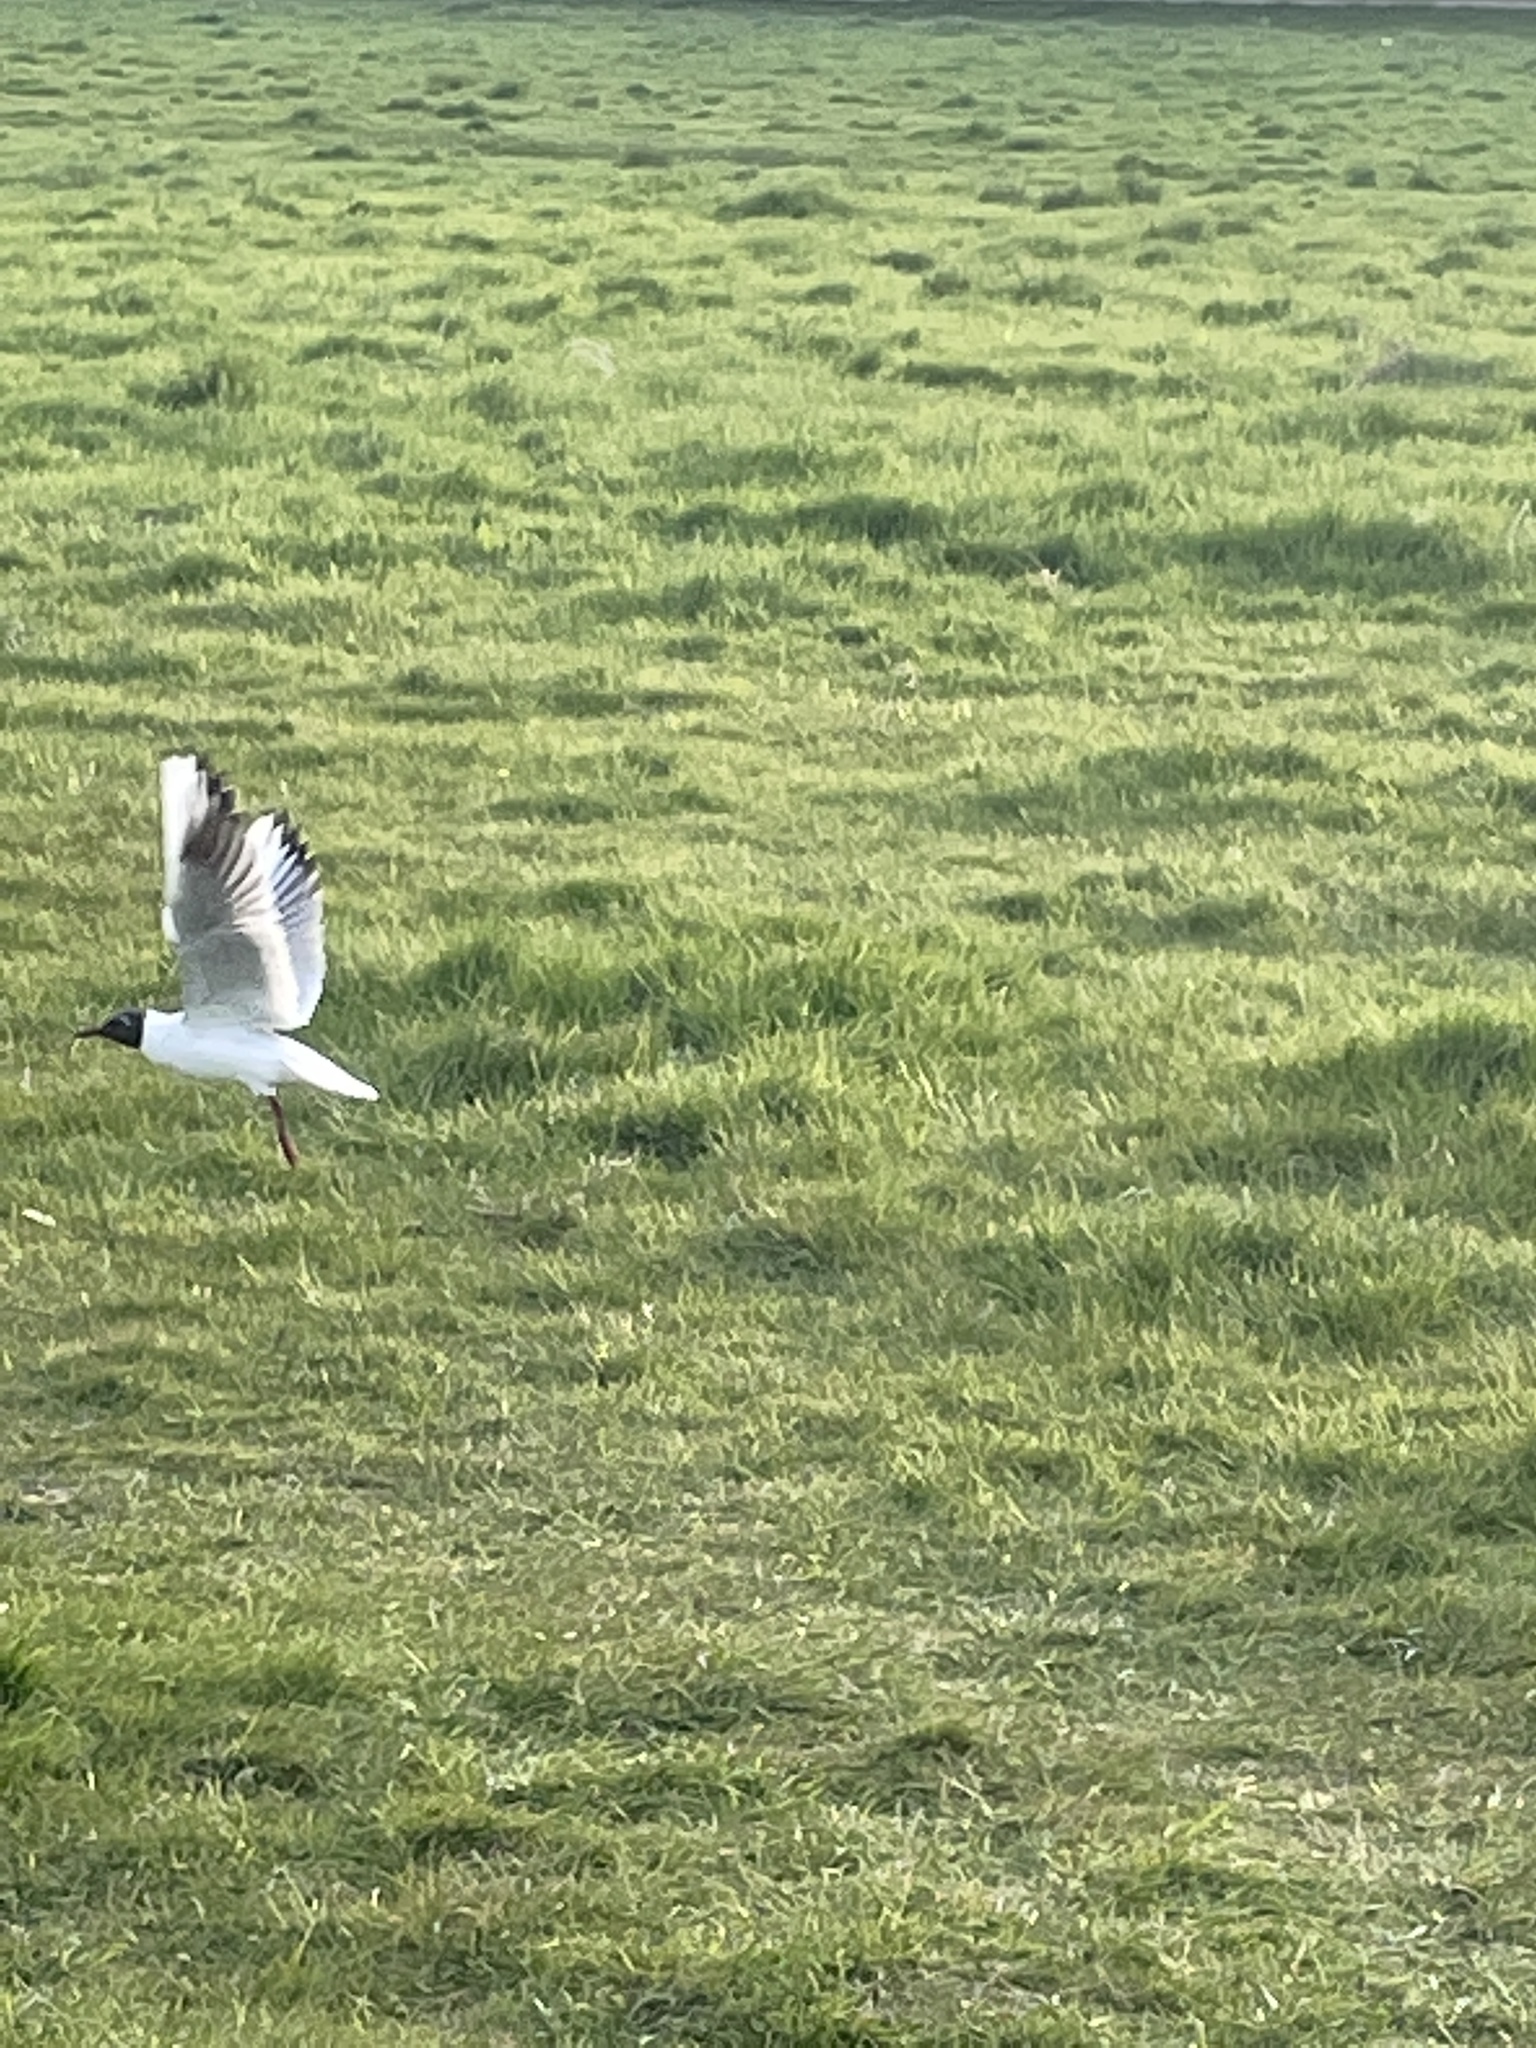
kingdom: Animalia
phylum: Chordata
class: Aves
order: Charadriiformes
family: Laridae
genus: Chroicocephalus
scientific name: Chroicocephalus ridibundus
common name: Black-headed gull
